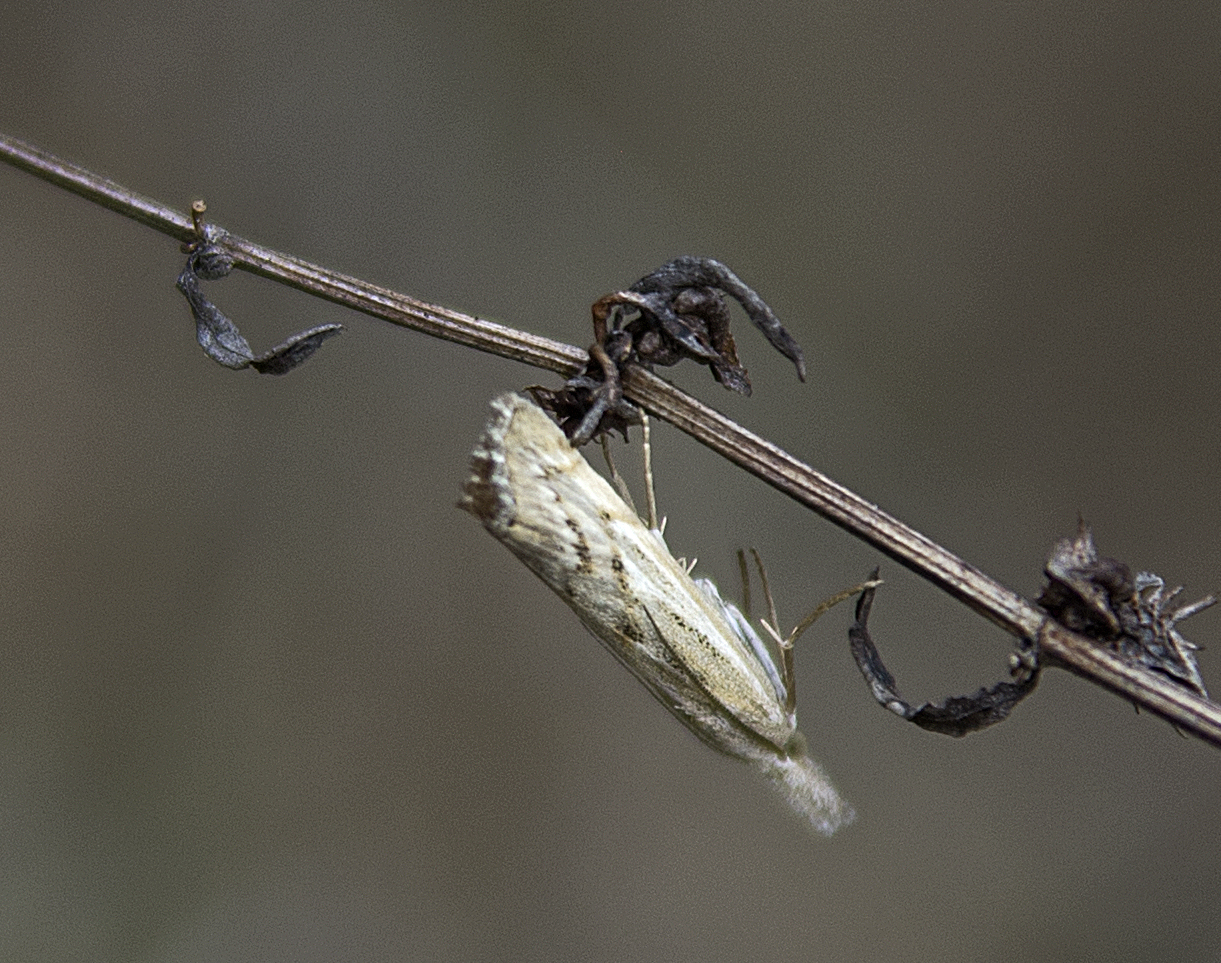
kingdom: Animalia
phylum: Arthropoda
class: Insecta
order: Lepidoptera
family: Crambidae
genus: Pediasia
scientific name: Pediasia jucundellus
